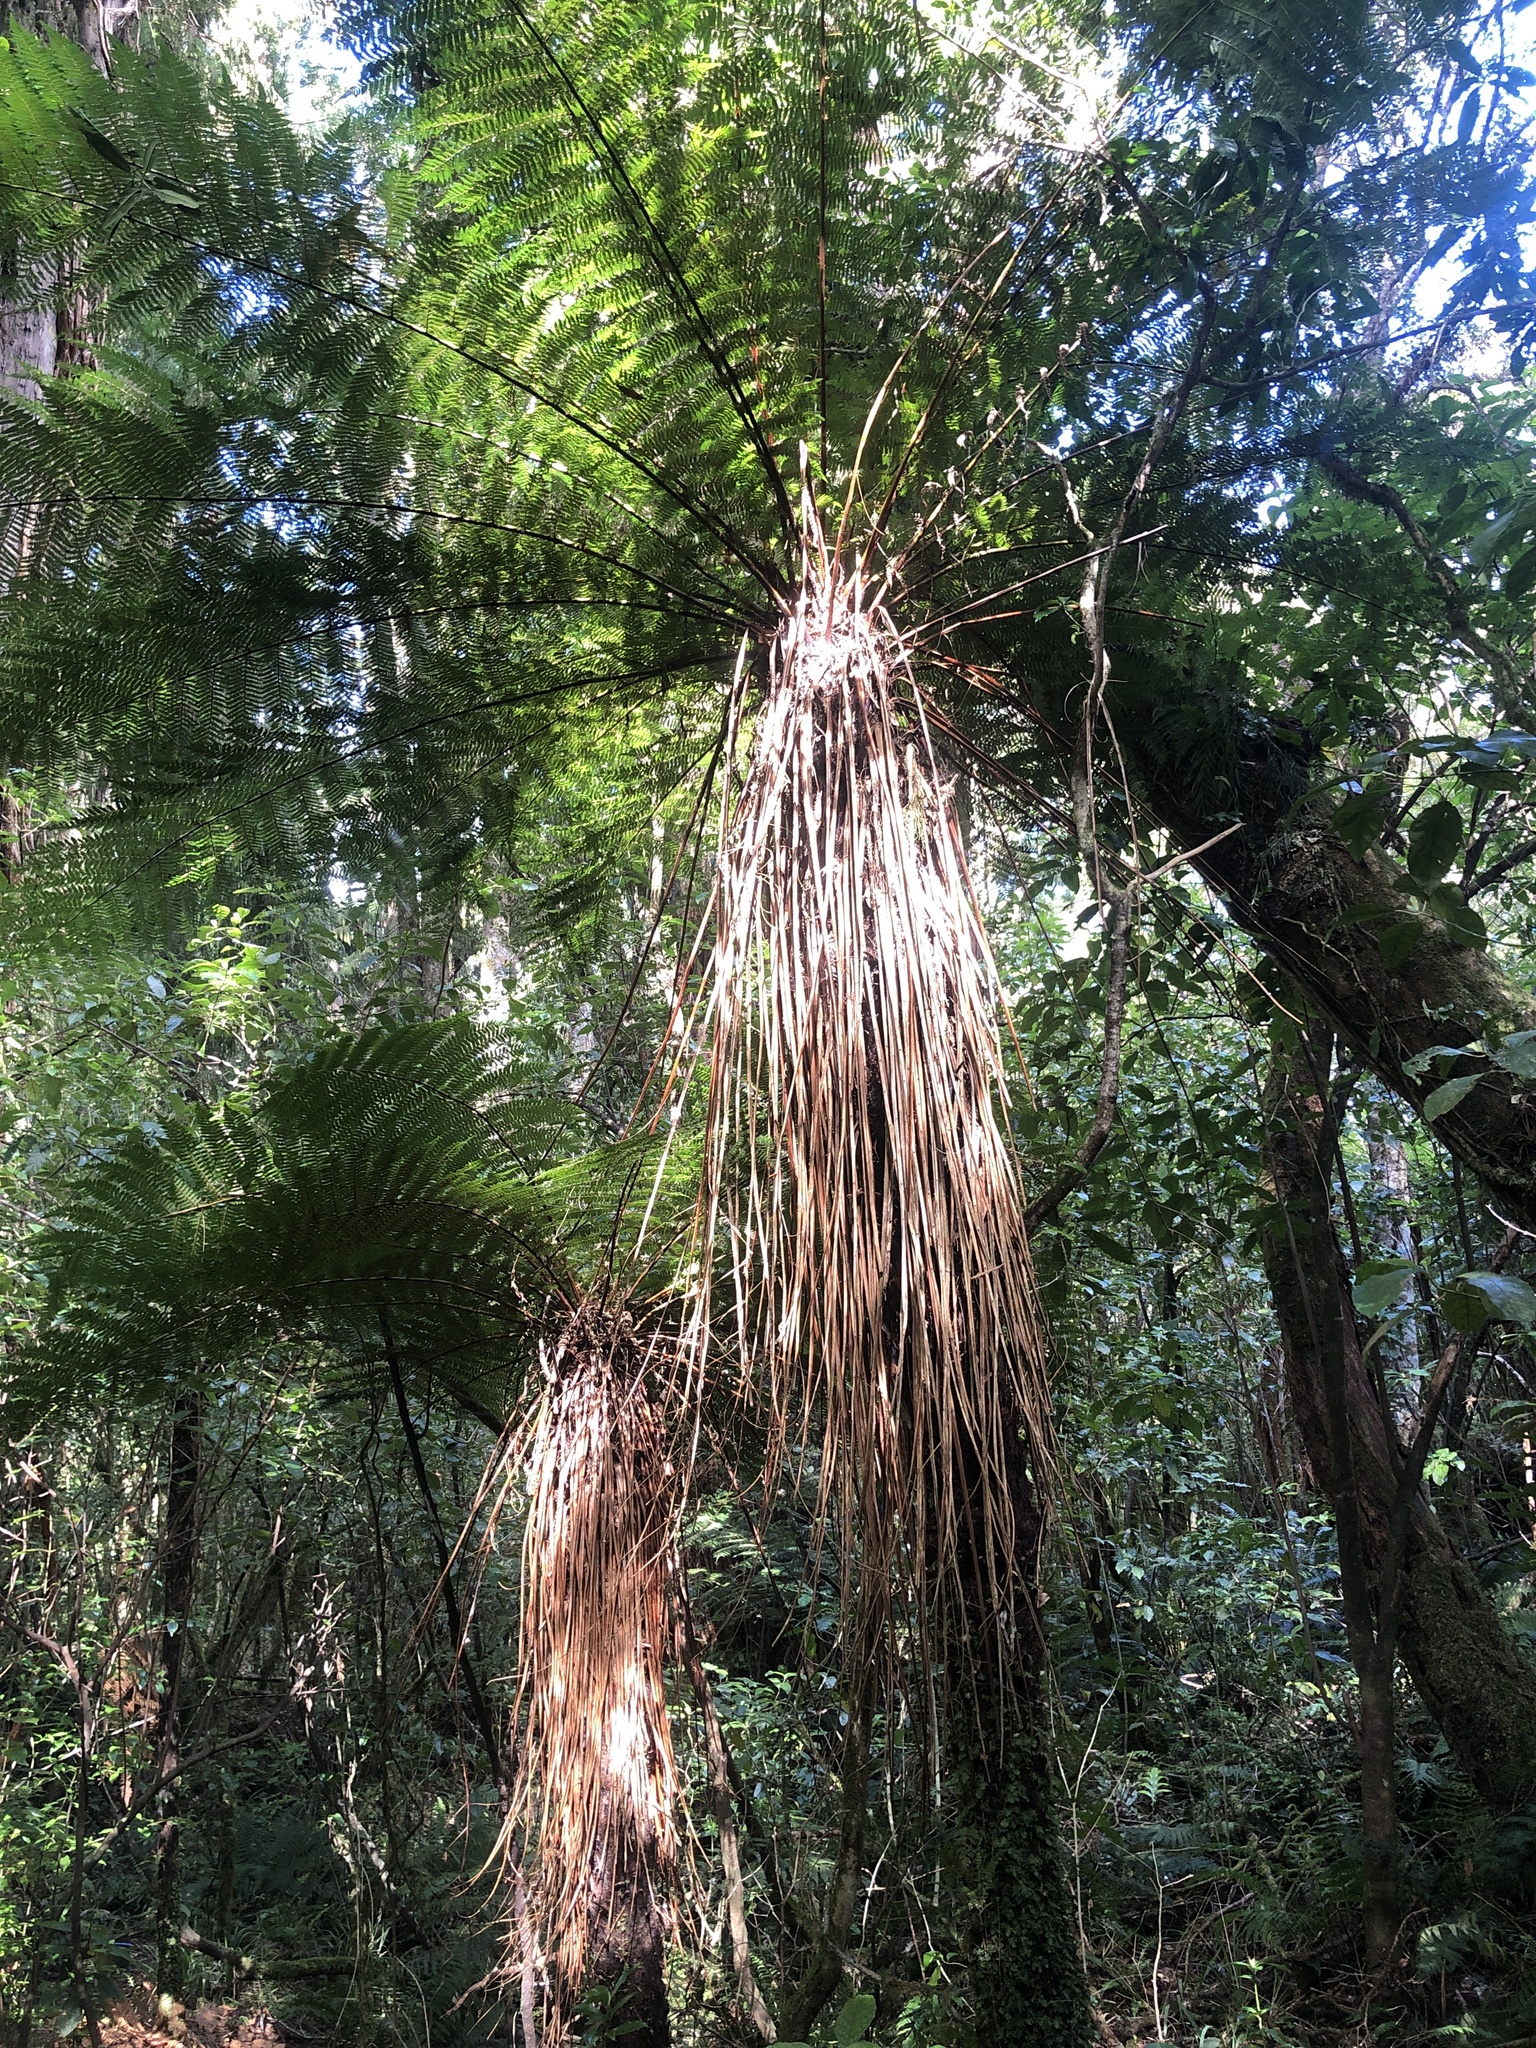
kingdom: Plantae
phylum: Tracheophyta
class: Polypodiopsida
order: Cyatheales
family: Cyatheaceae
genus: Alsophila
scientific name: Alsophila smithii
